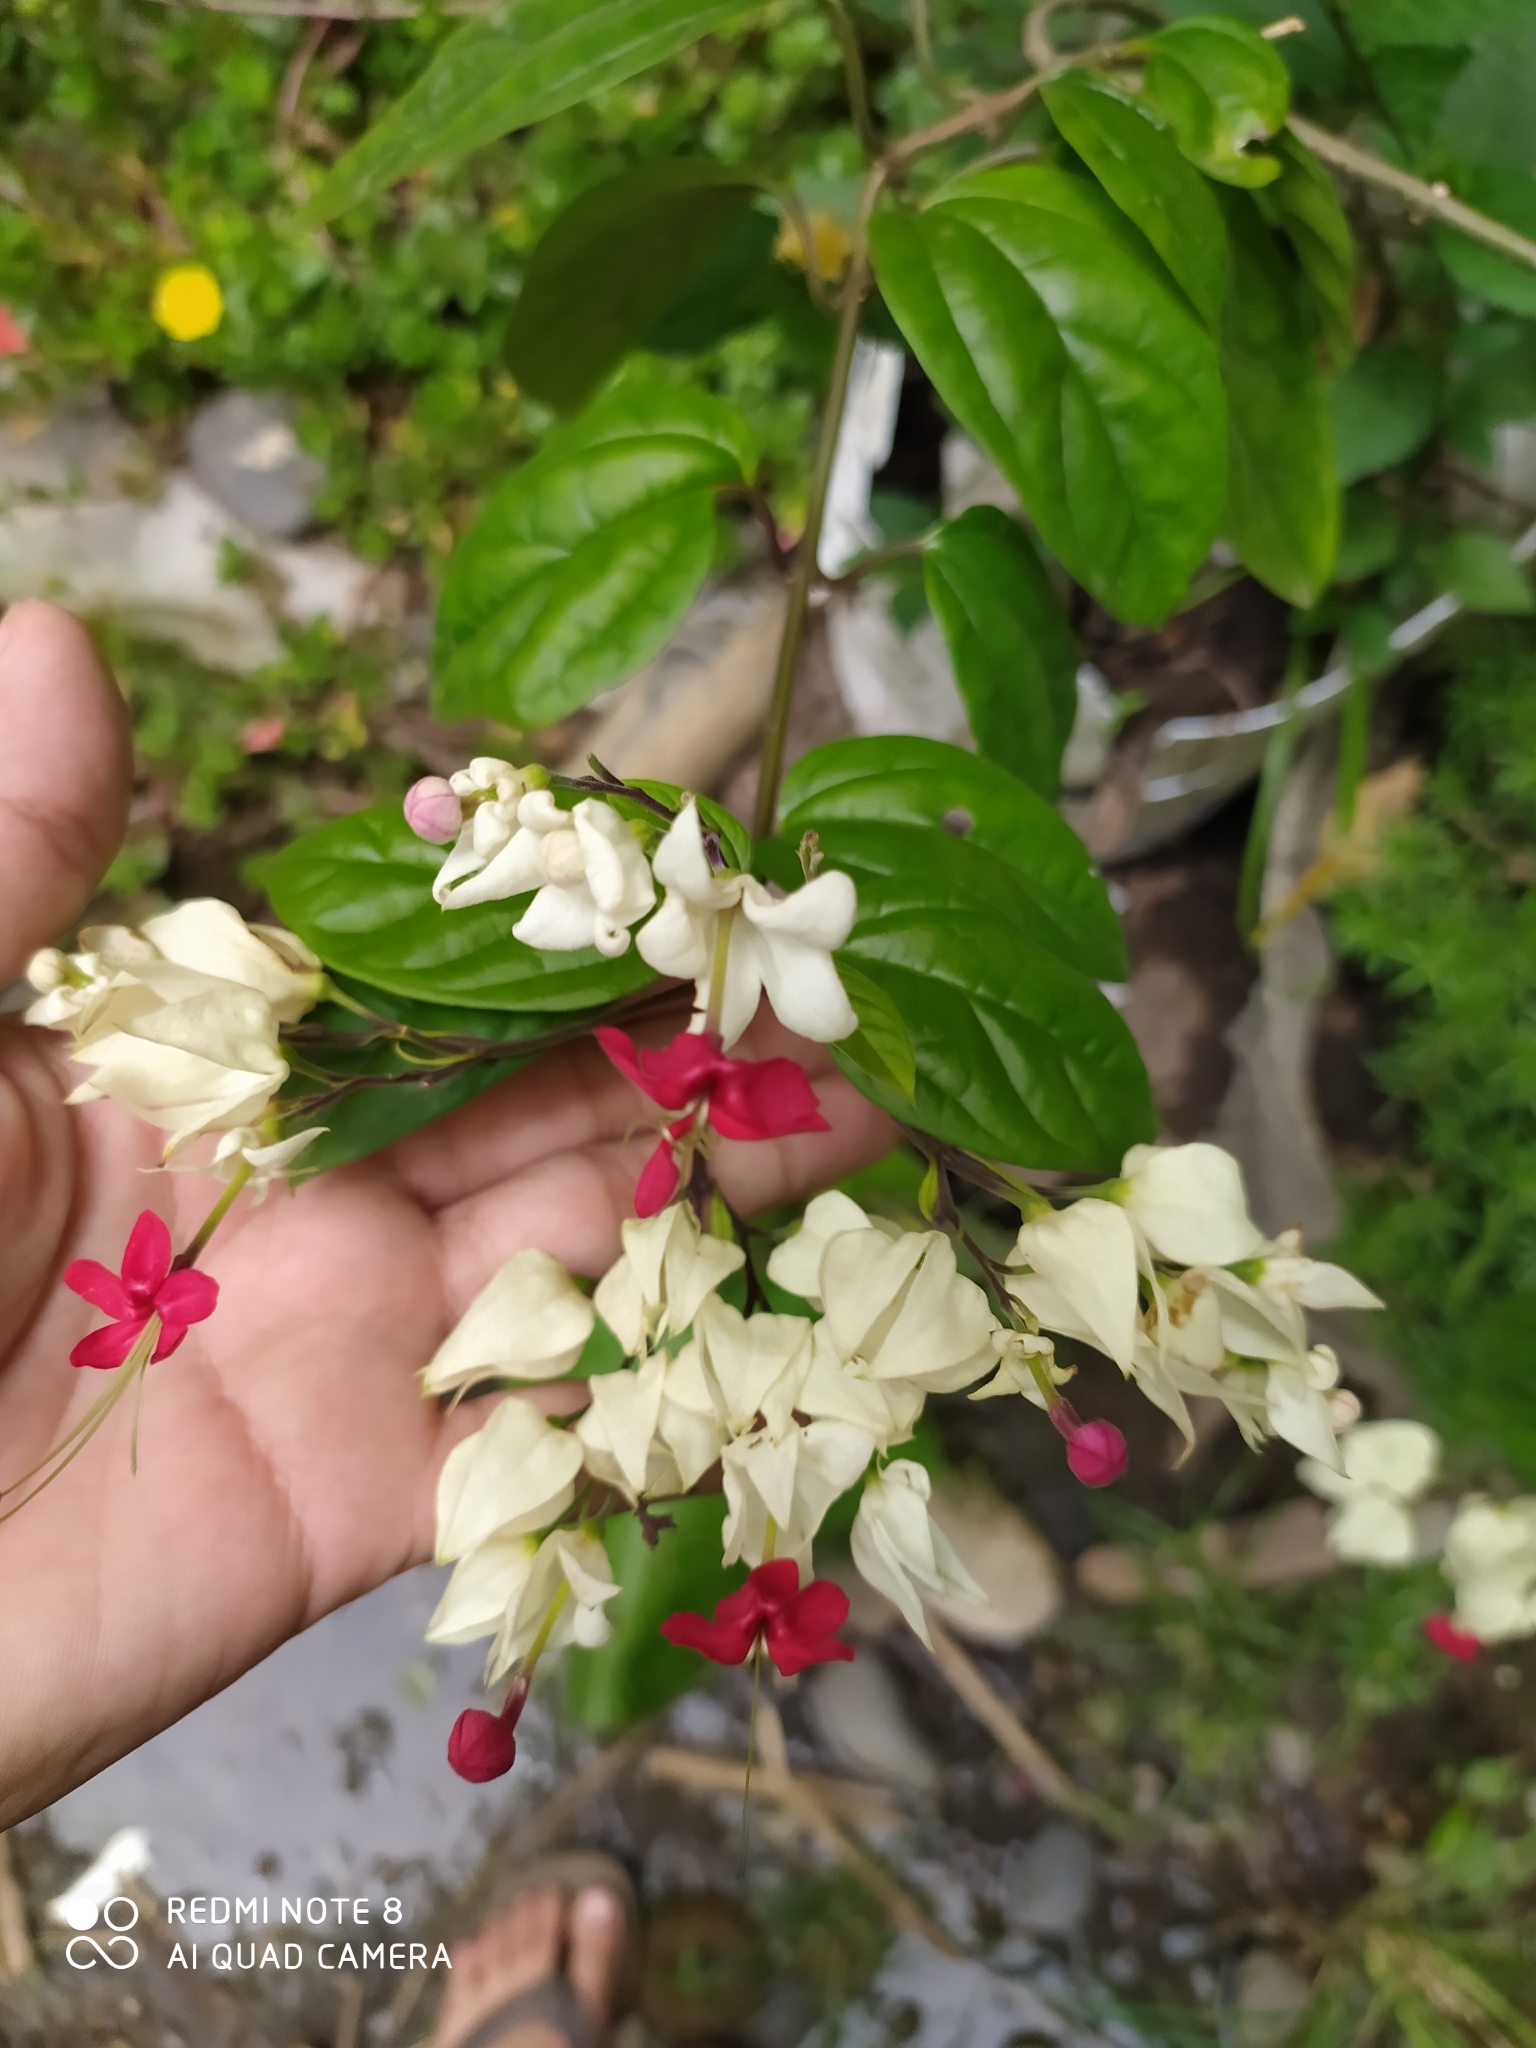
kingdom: Plantae
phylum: Tracheophyta
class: Magnoliopsida
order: Lamiales
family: Lamiaceae
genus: Clerodendrum
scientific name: Clerodendrum thomsoniae
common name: Bagflower
